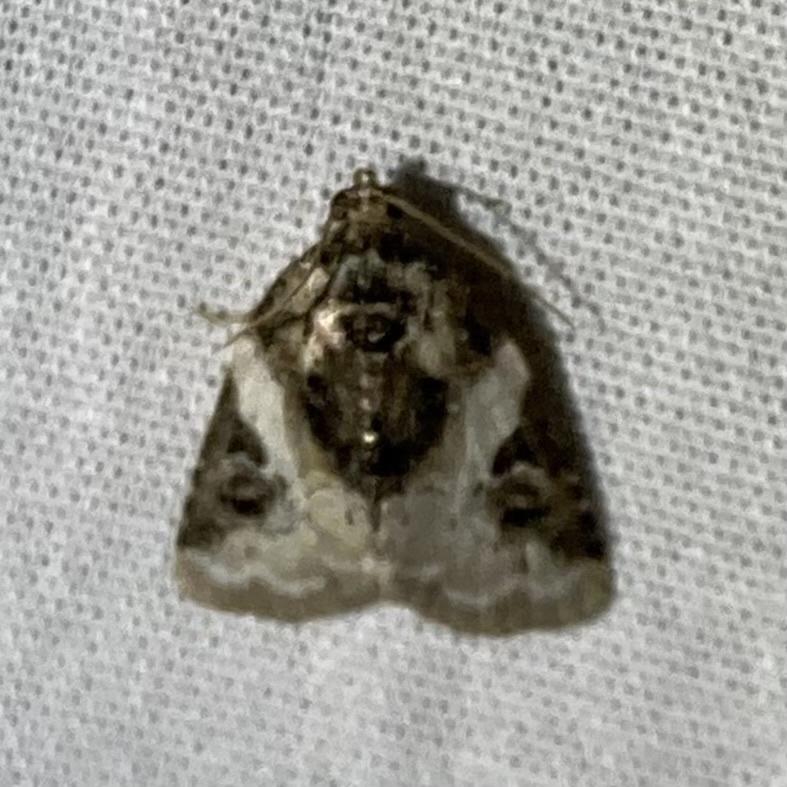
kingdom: Animalia
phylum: Arthropoda
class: Insecta
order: Lepidoptera
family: Noctuidae
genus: Pseudeustrotia
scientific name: Pseudeustrotia carneola
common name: Pink-barred lithacodia moth
